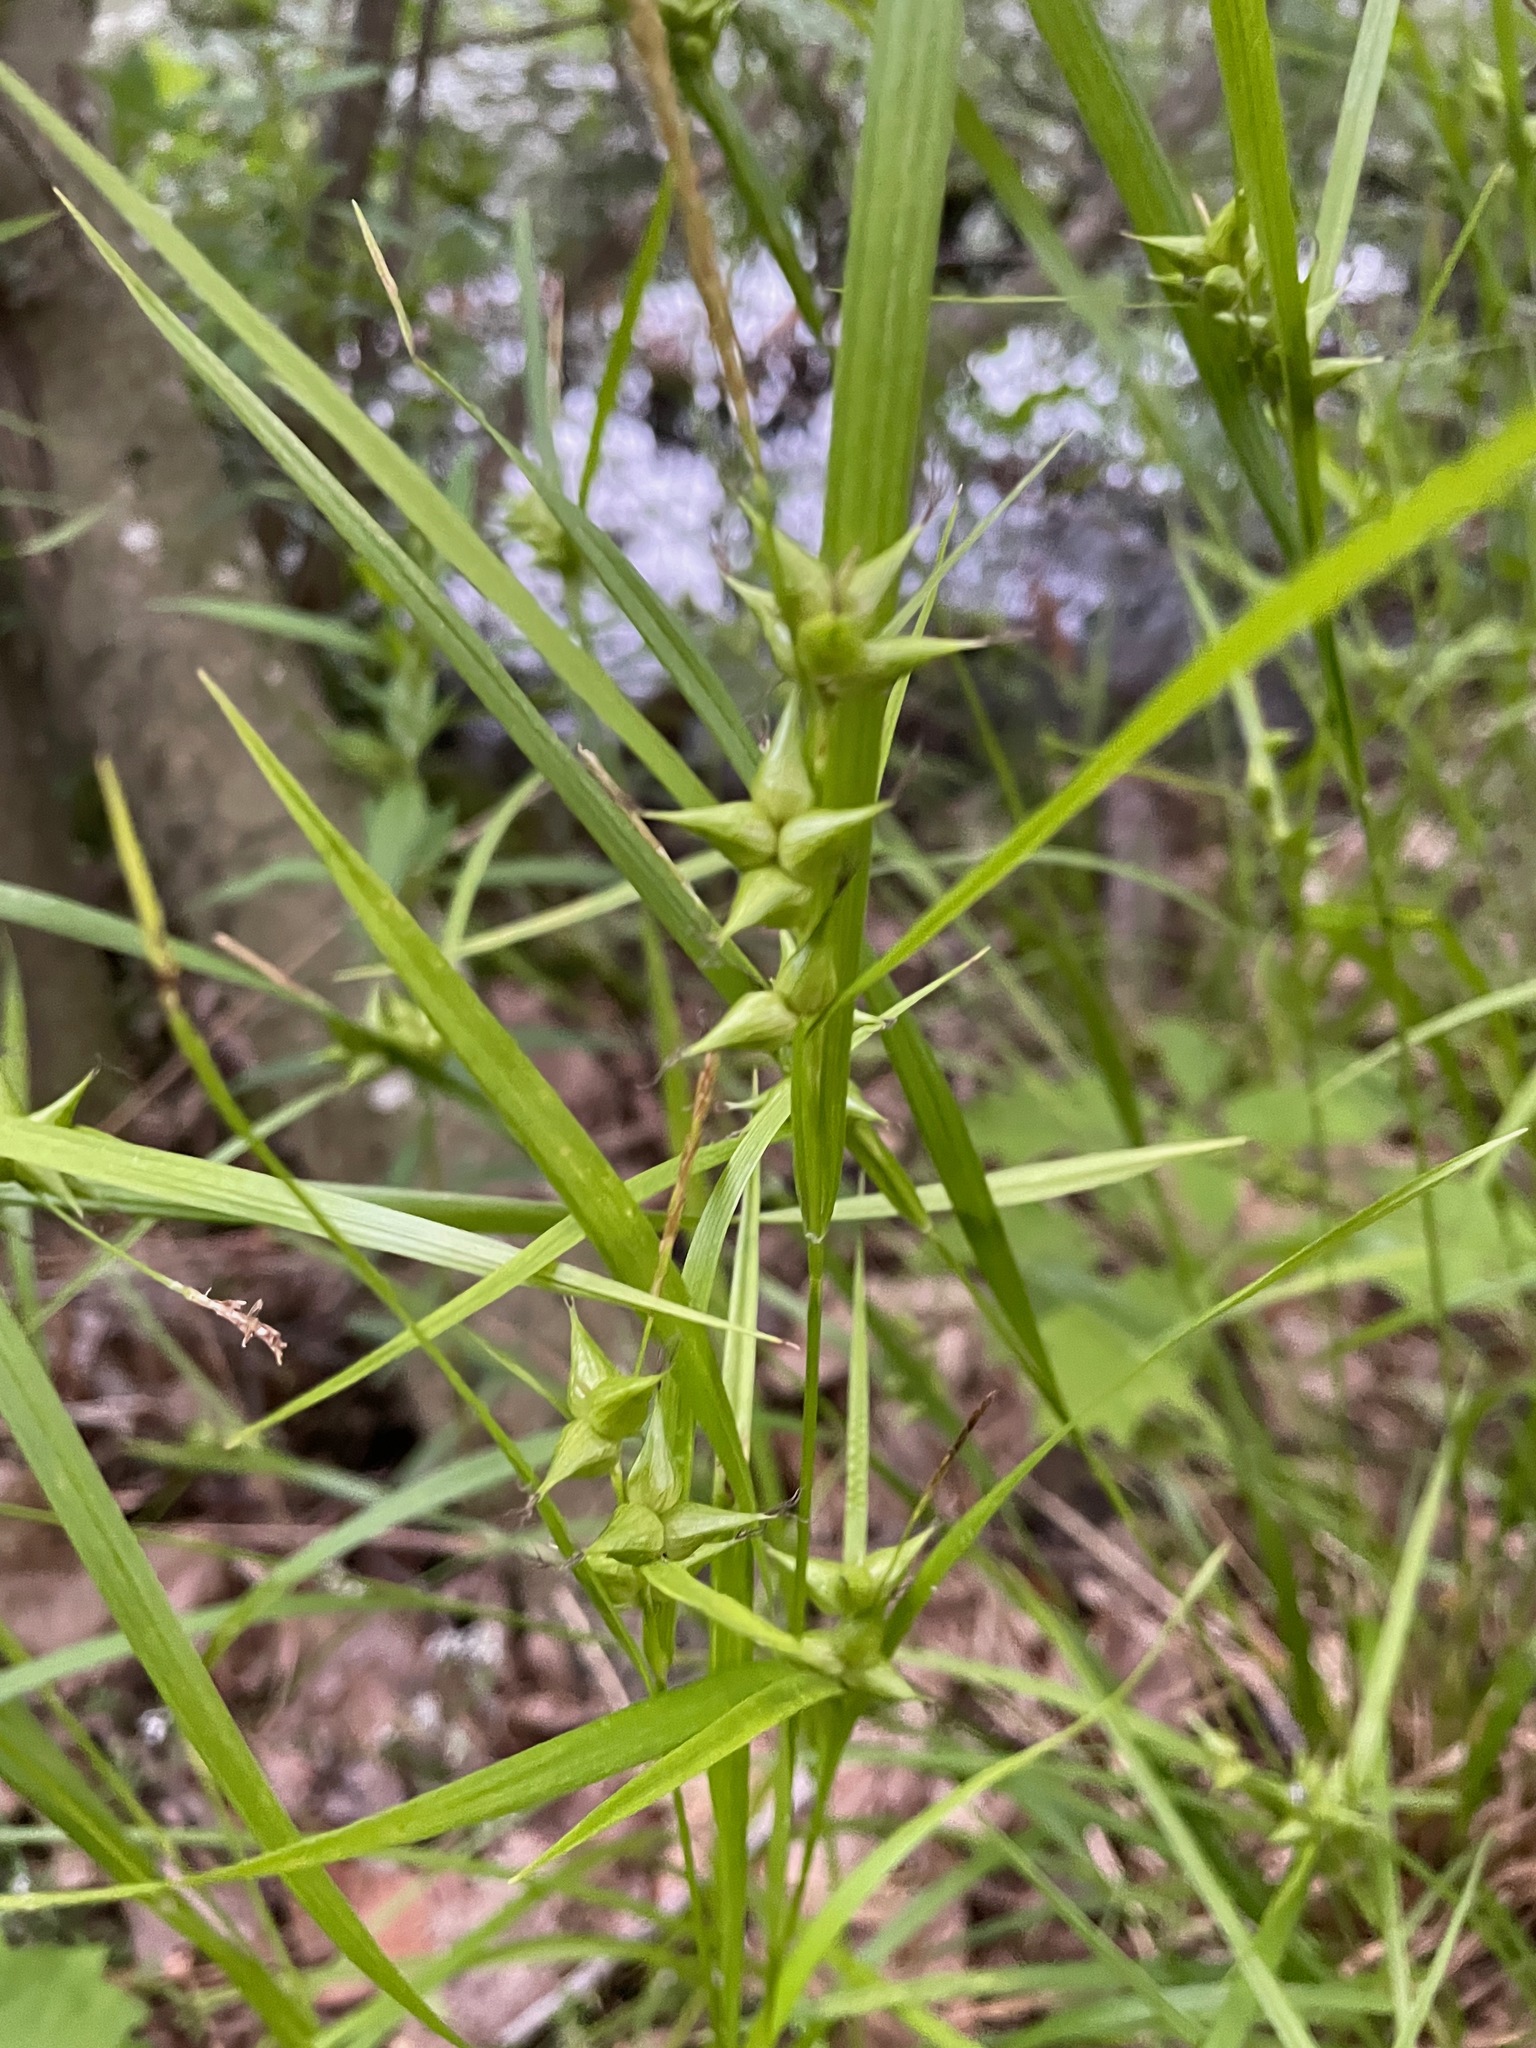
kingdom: Plantae
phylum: Tracheophyta
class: Liliopsida
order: Poales
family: Cyperaceae
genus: Carex
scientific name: Carex intumescens
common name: Greater bladder sedge
